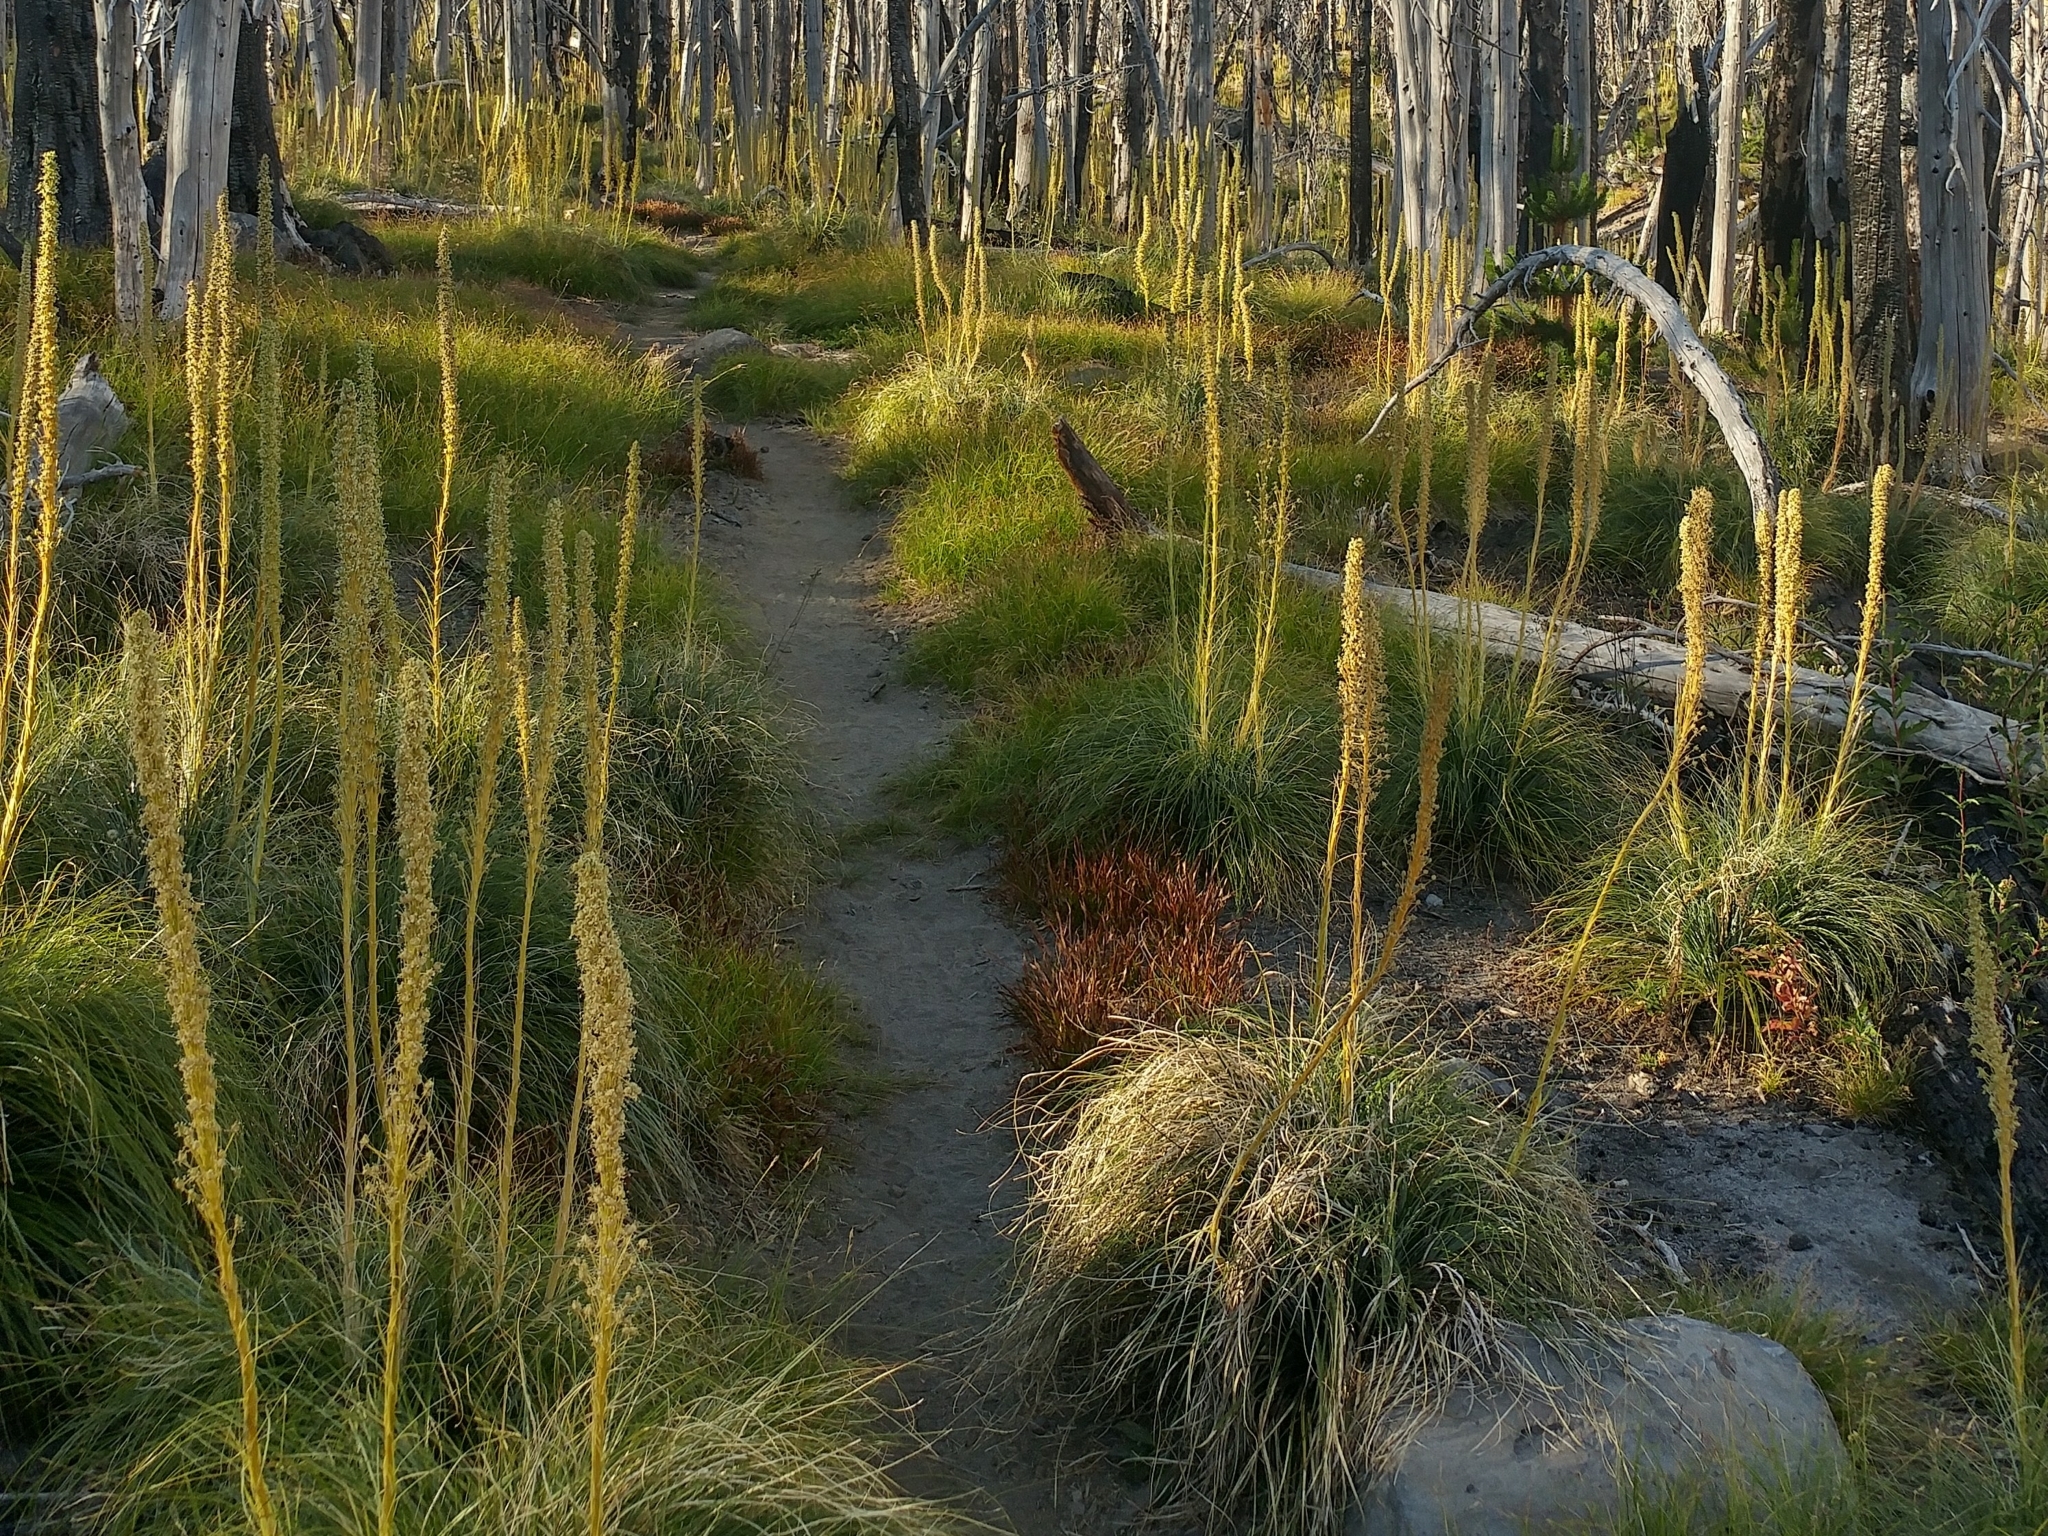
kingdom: Plantae
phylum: Tracheophyta
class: Liliopsida
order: Liliales
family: Melanthiaceae
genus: Xerophyllum
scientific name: Xerophyllum tenax
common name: Bear-grass
